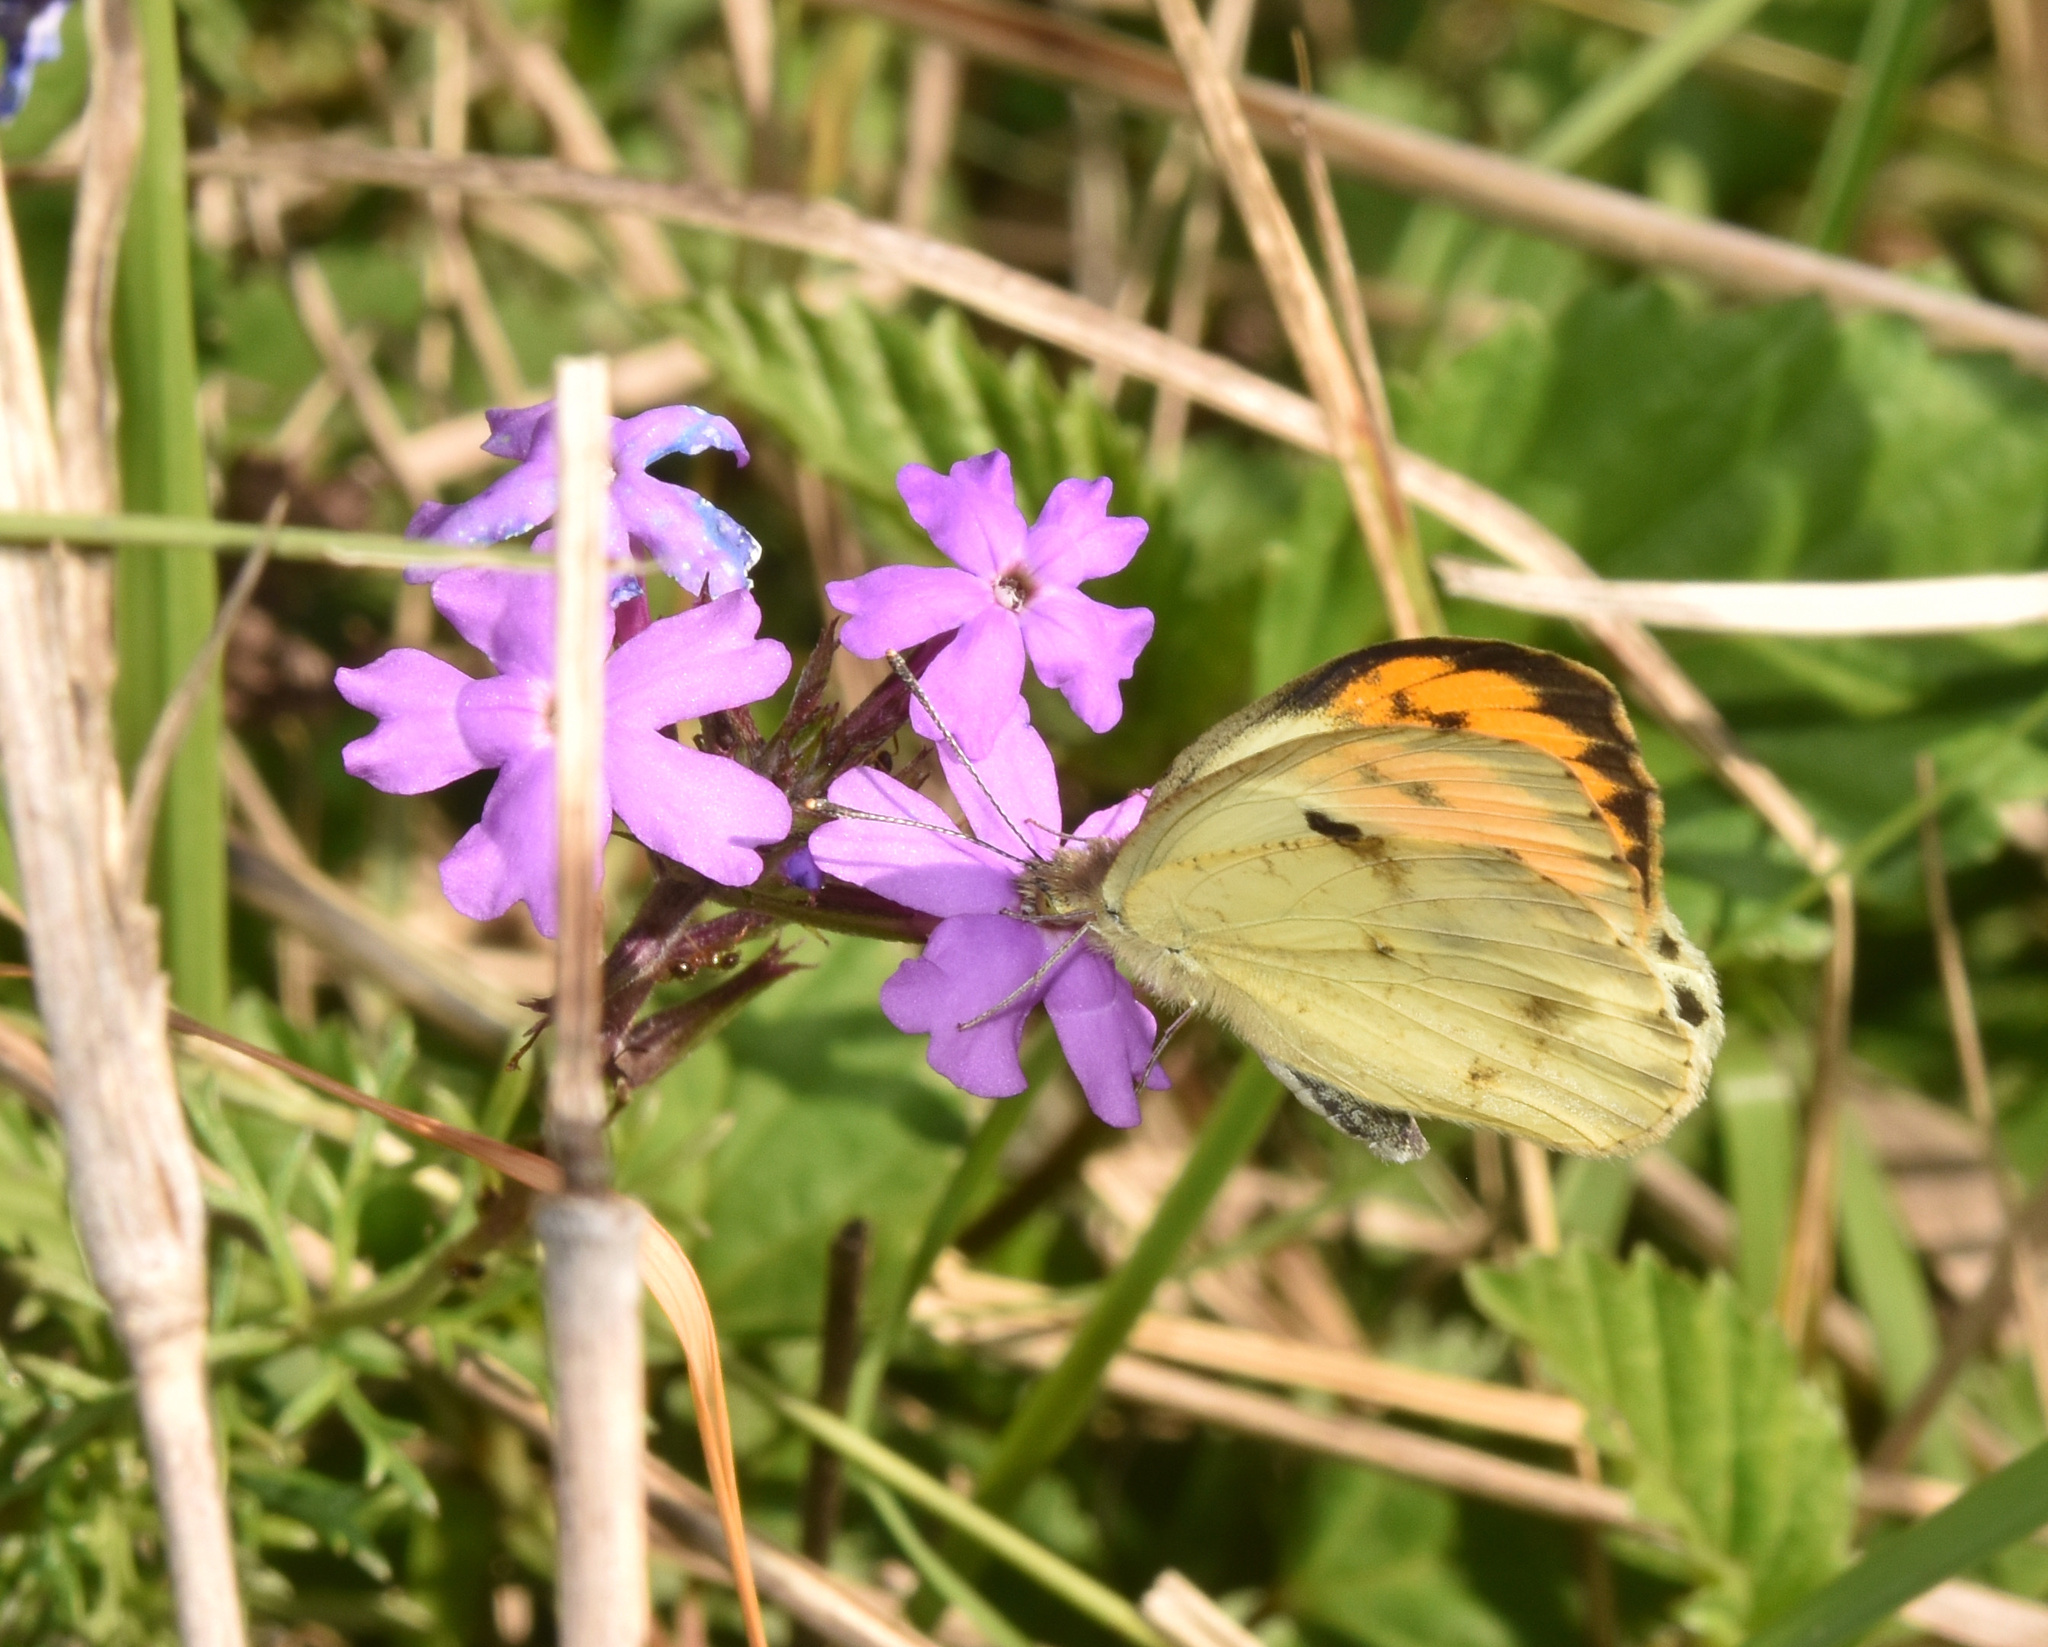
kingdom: Animalia
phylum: Arthropoda
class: Insecta
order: Lepidoptera
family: Pieridae
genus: Colotis
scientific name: Colotis auxo
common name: Sulphur orange tip
